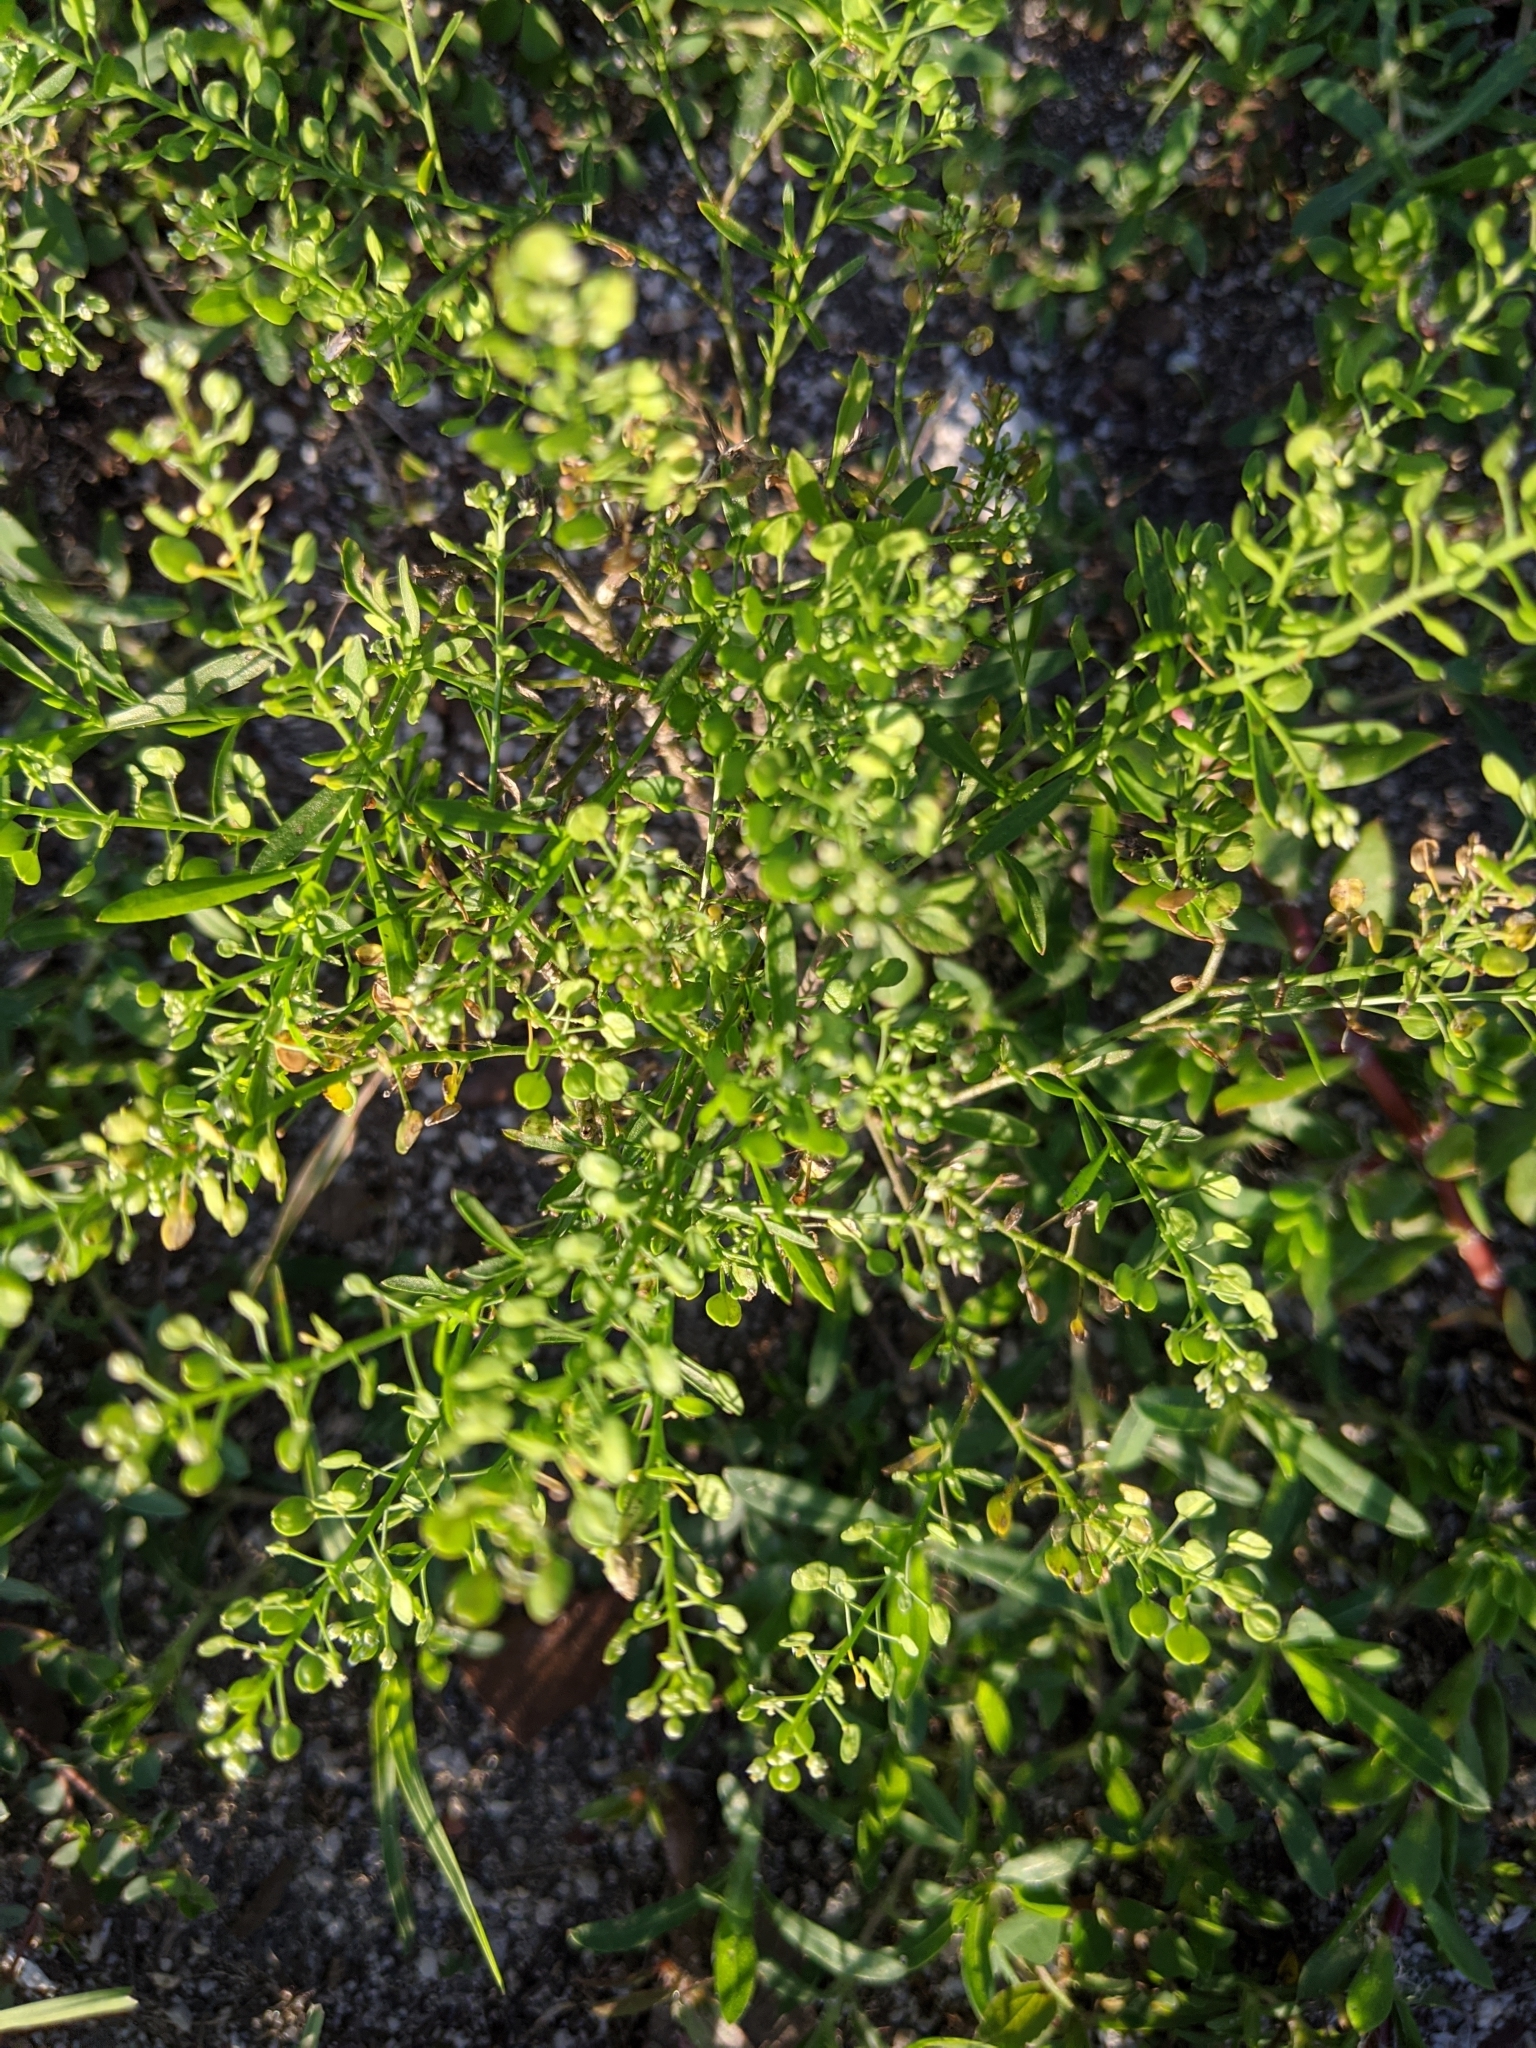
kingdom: Plantae
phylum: Tracheophyta
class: Magnoliopsida
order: Brassicales
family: Brassicaceae
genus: Lepidium
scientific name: Lepidium virginicum
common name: Least pepperwort
